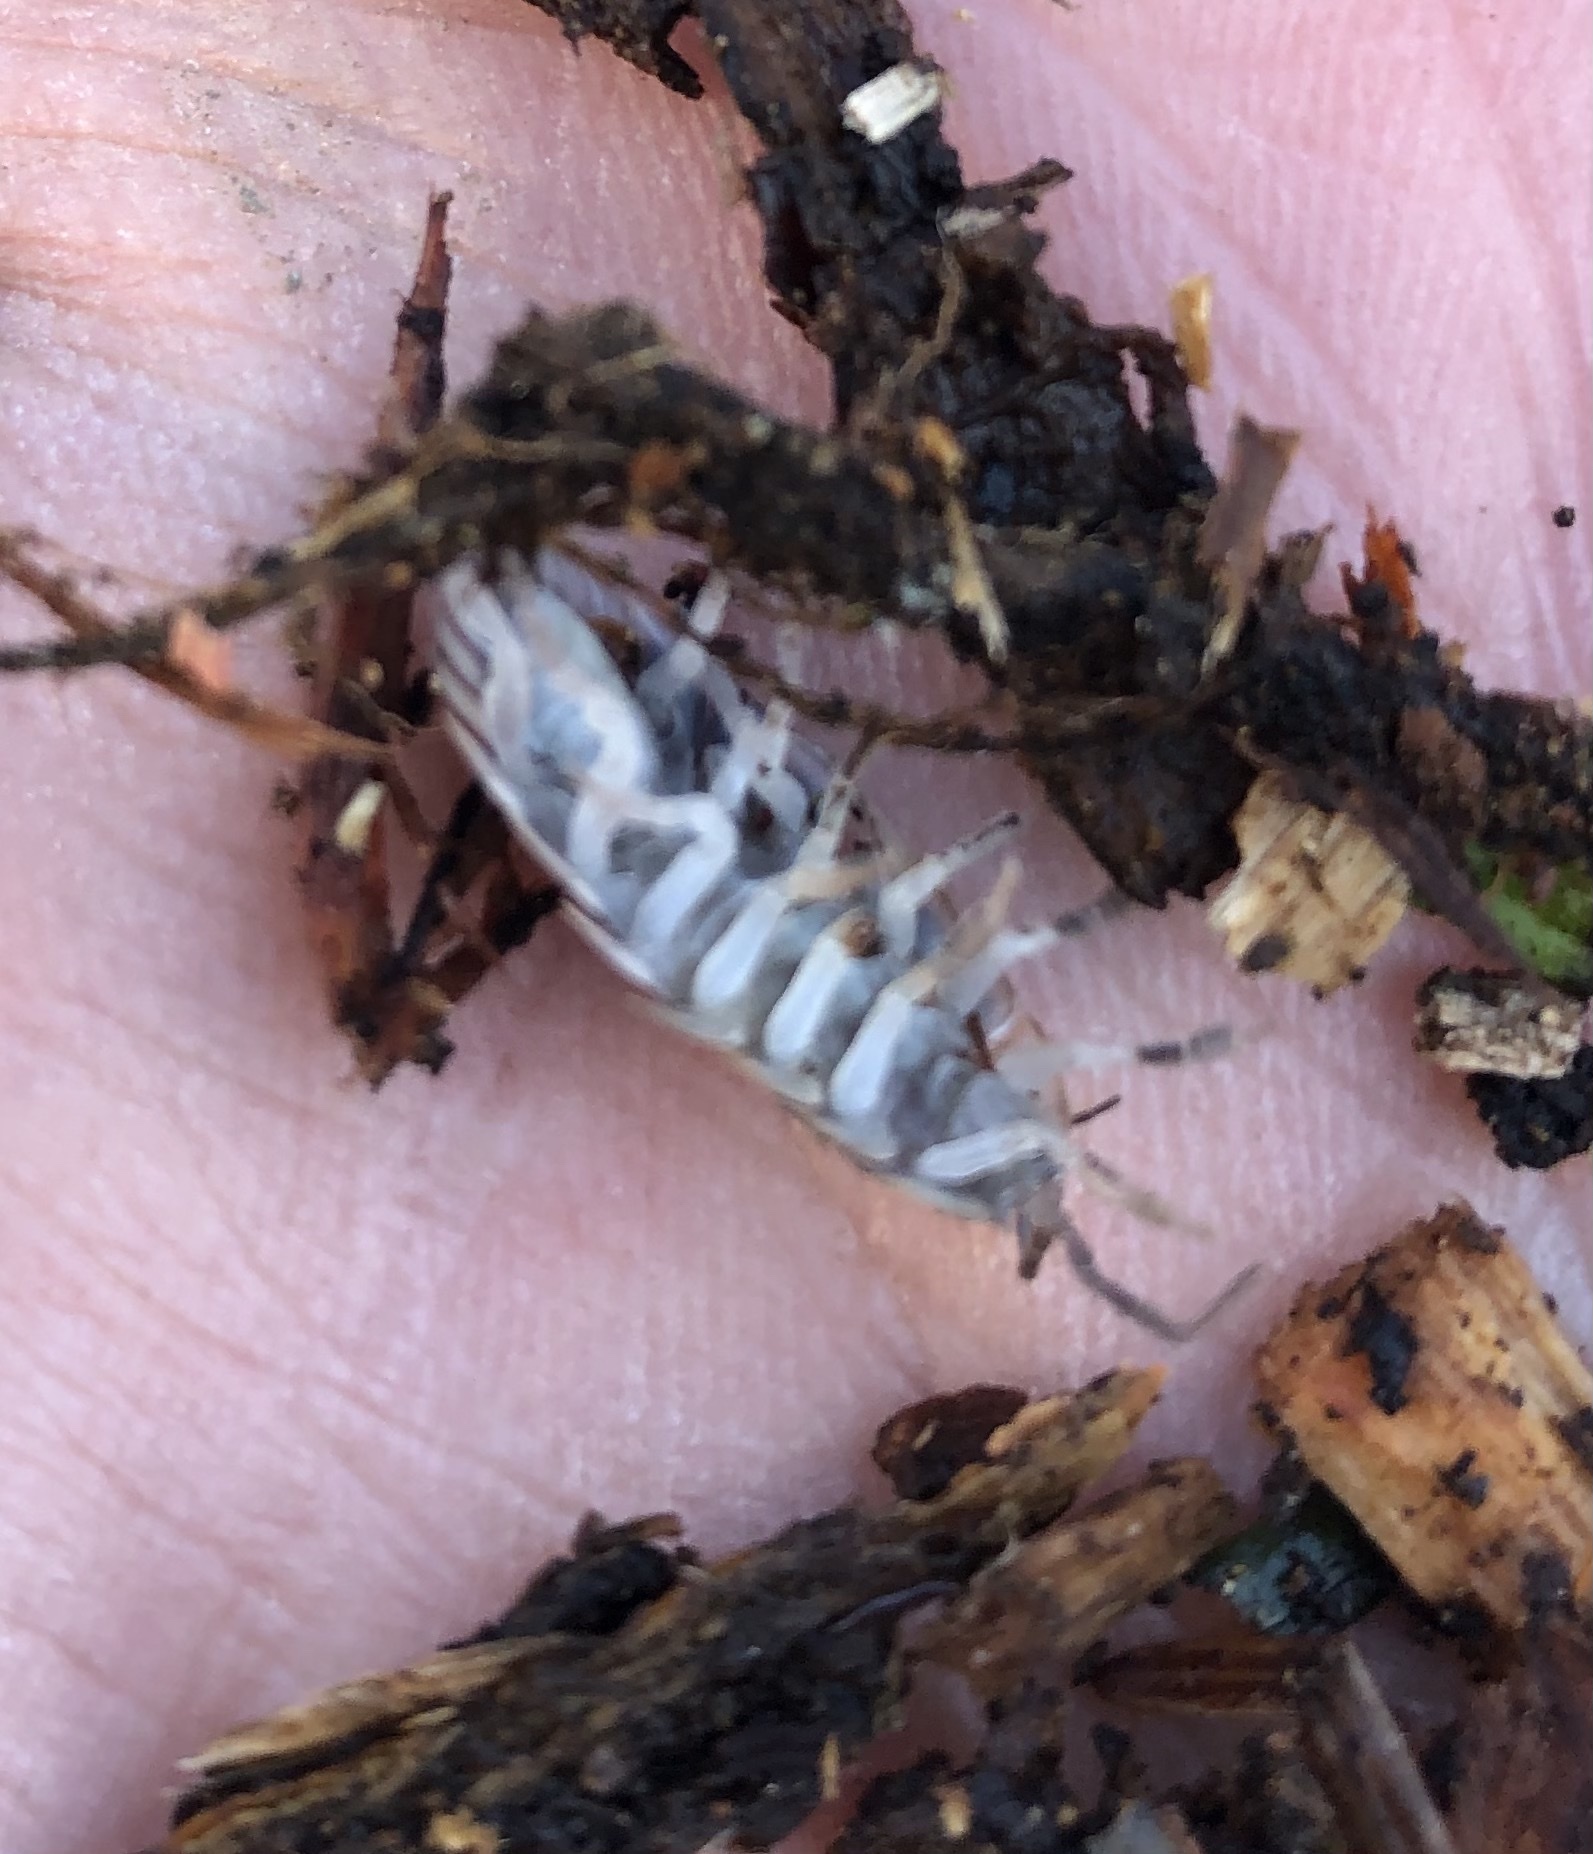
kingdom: Animalia
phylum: Arthropoda
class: Malacostraca
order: Isopoda
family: Oniscidae
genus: Oniscus
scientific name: Oniscus asellus
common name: Common shiny woodlouse
